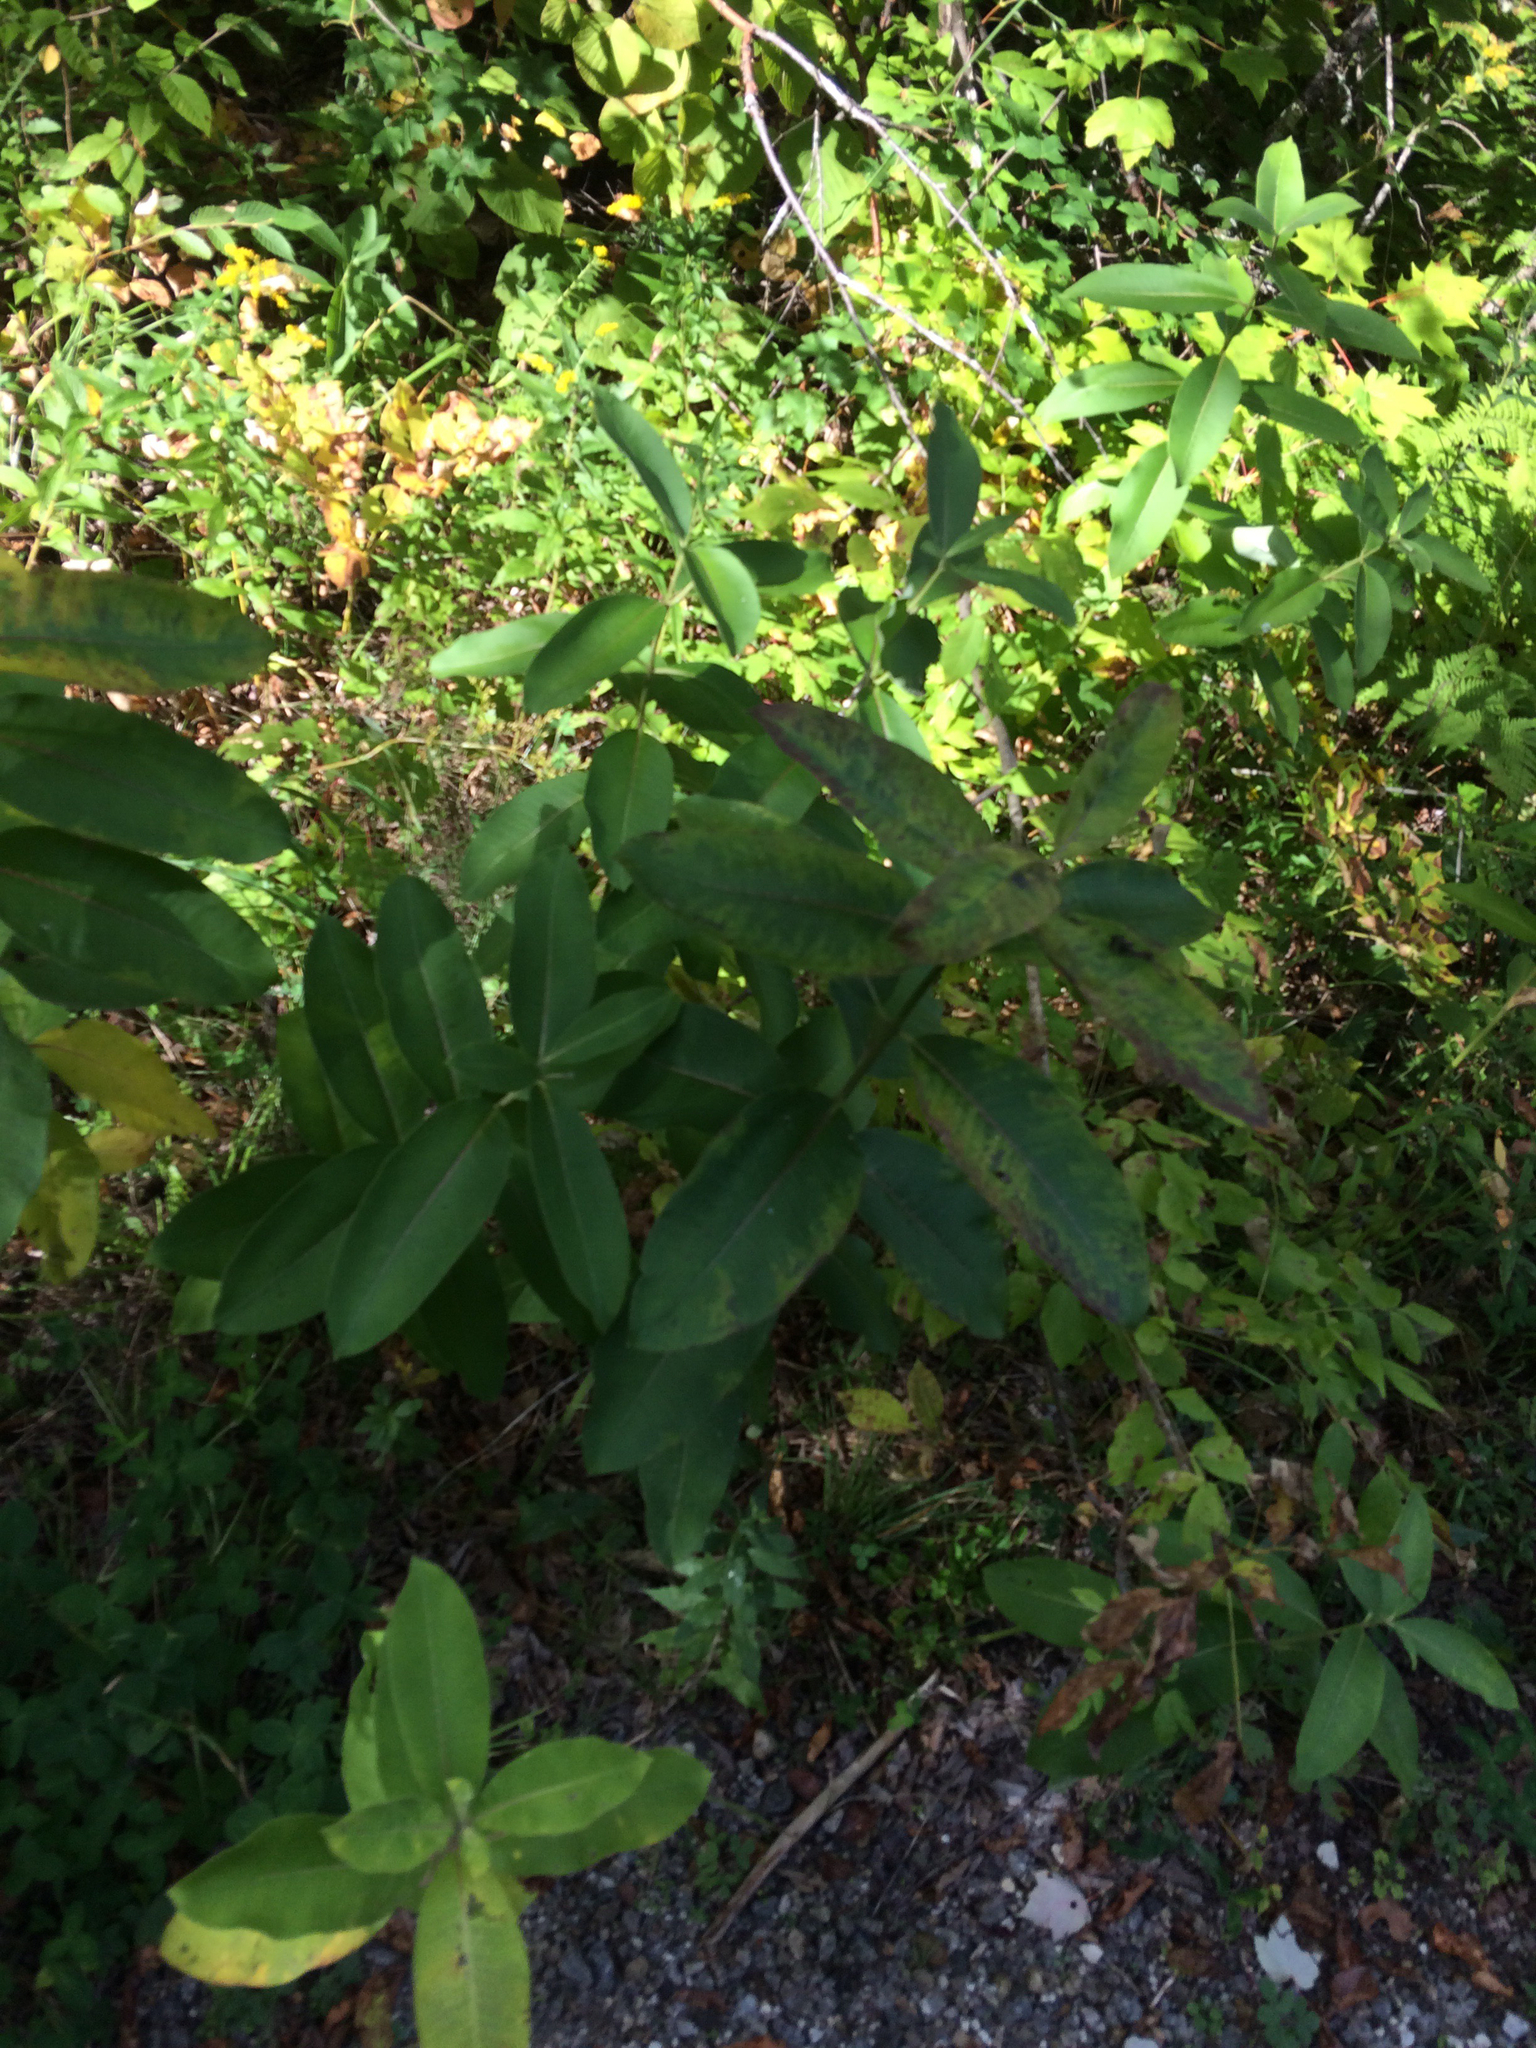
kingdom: Plantae
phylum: Tracheophyta
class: Magnoliopsida
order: Gentianales
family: Apocynaceae
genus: Asclepias
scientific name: Asclepias syriaca
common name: Common milkweed
